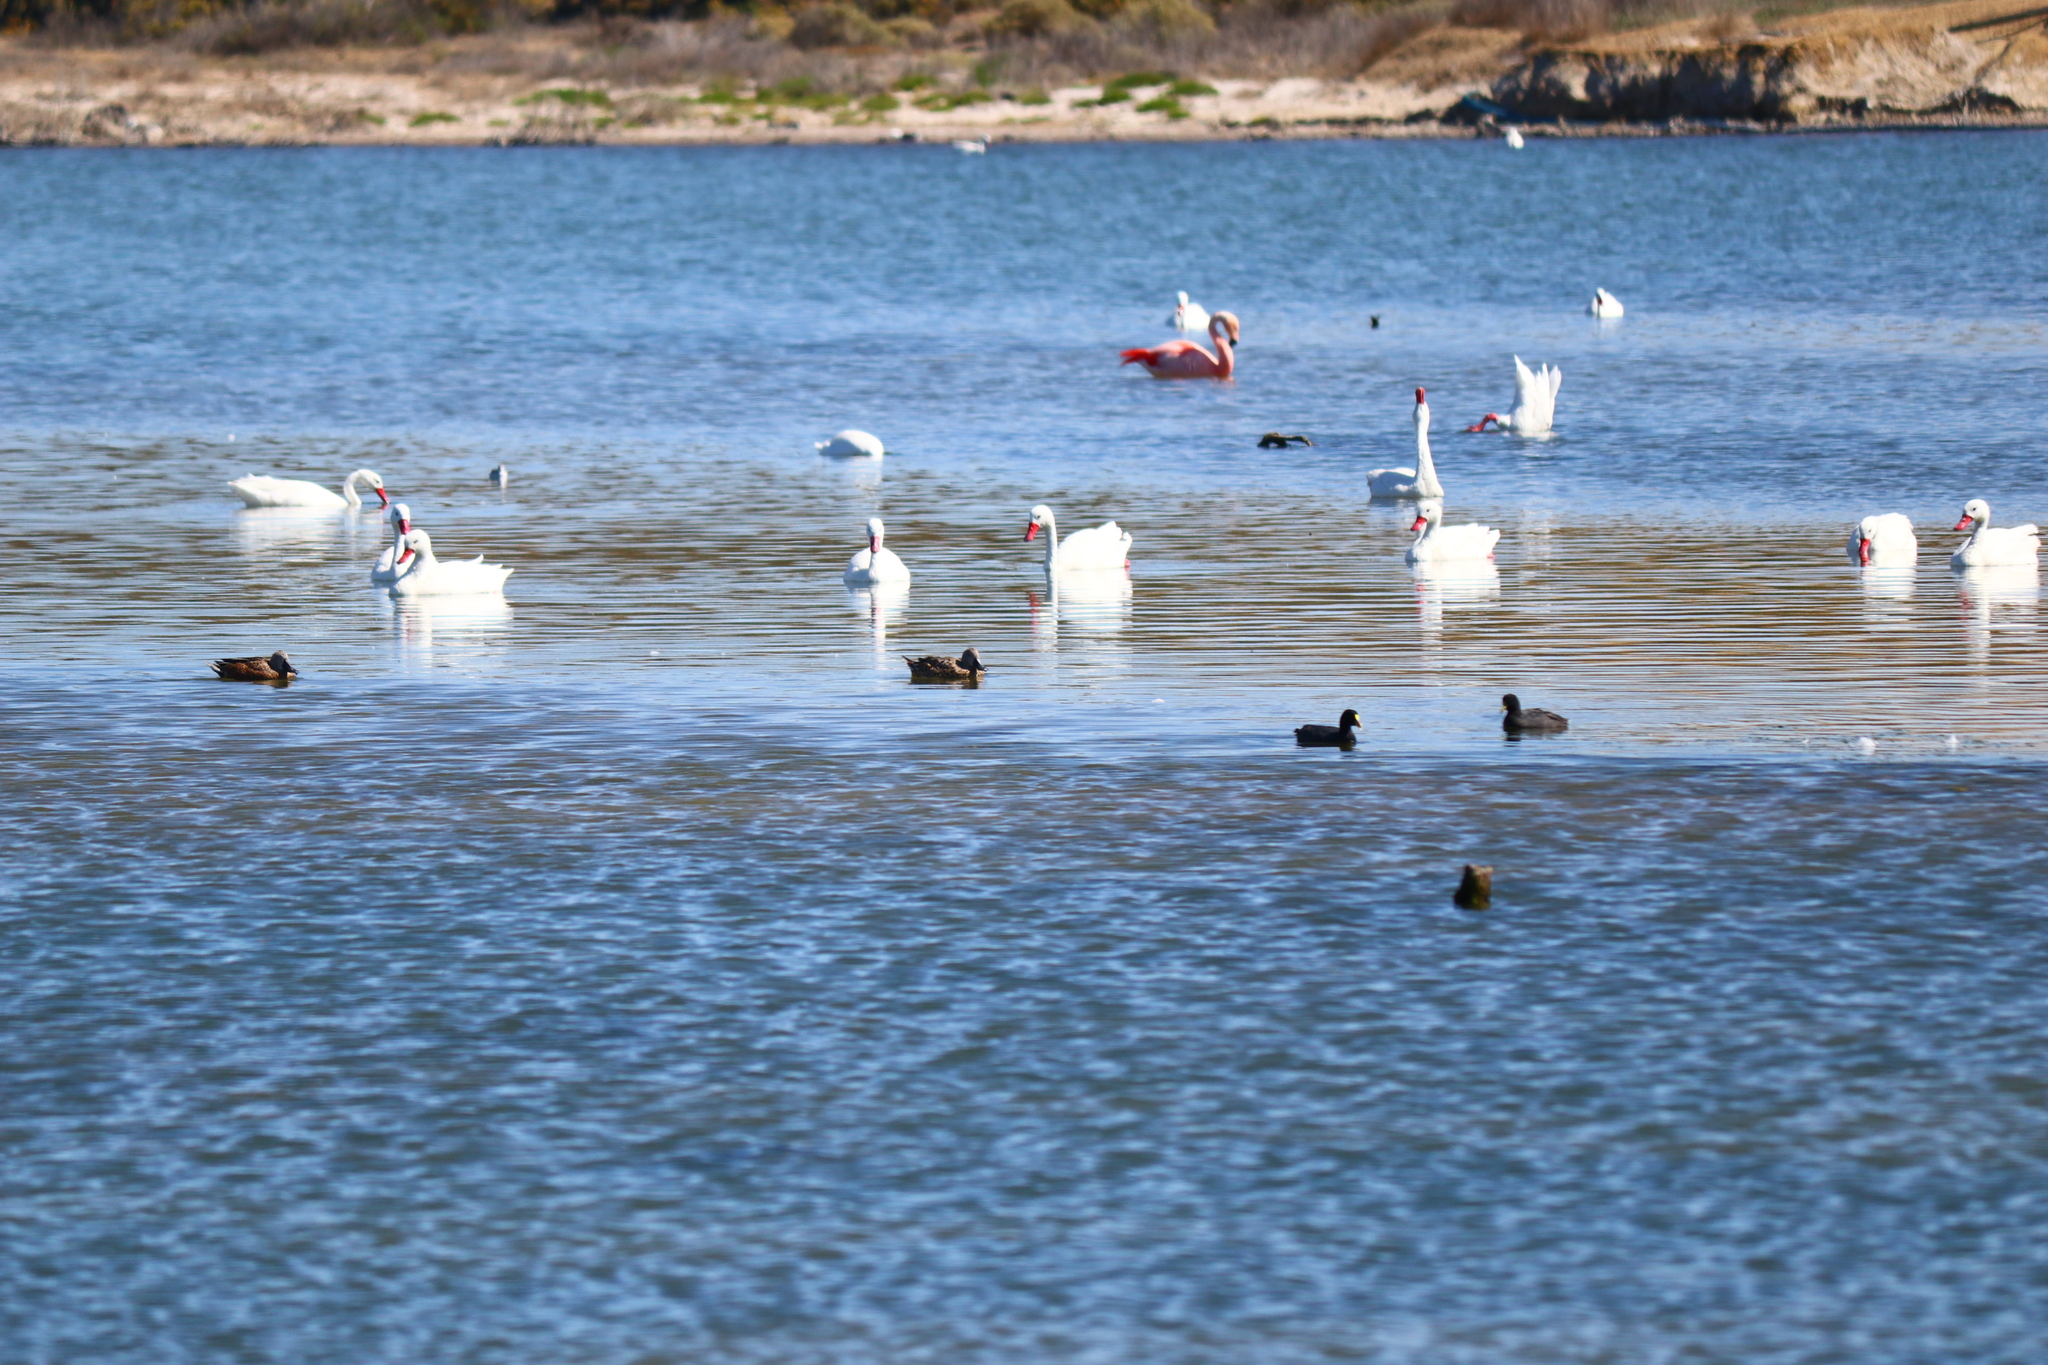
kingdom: Animalia
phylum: Chordata
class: Aves
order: Anseriformes
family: Anatidae
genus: Spatula
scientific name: Spatula platalea
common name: Red shoveler
